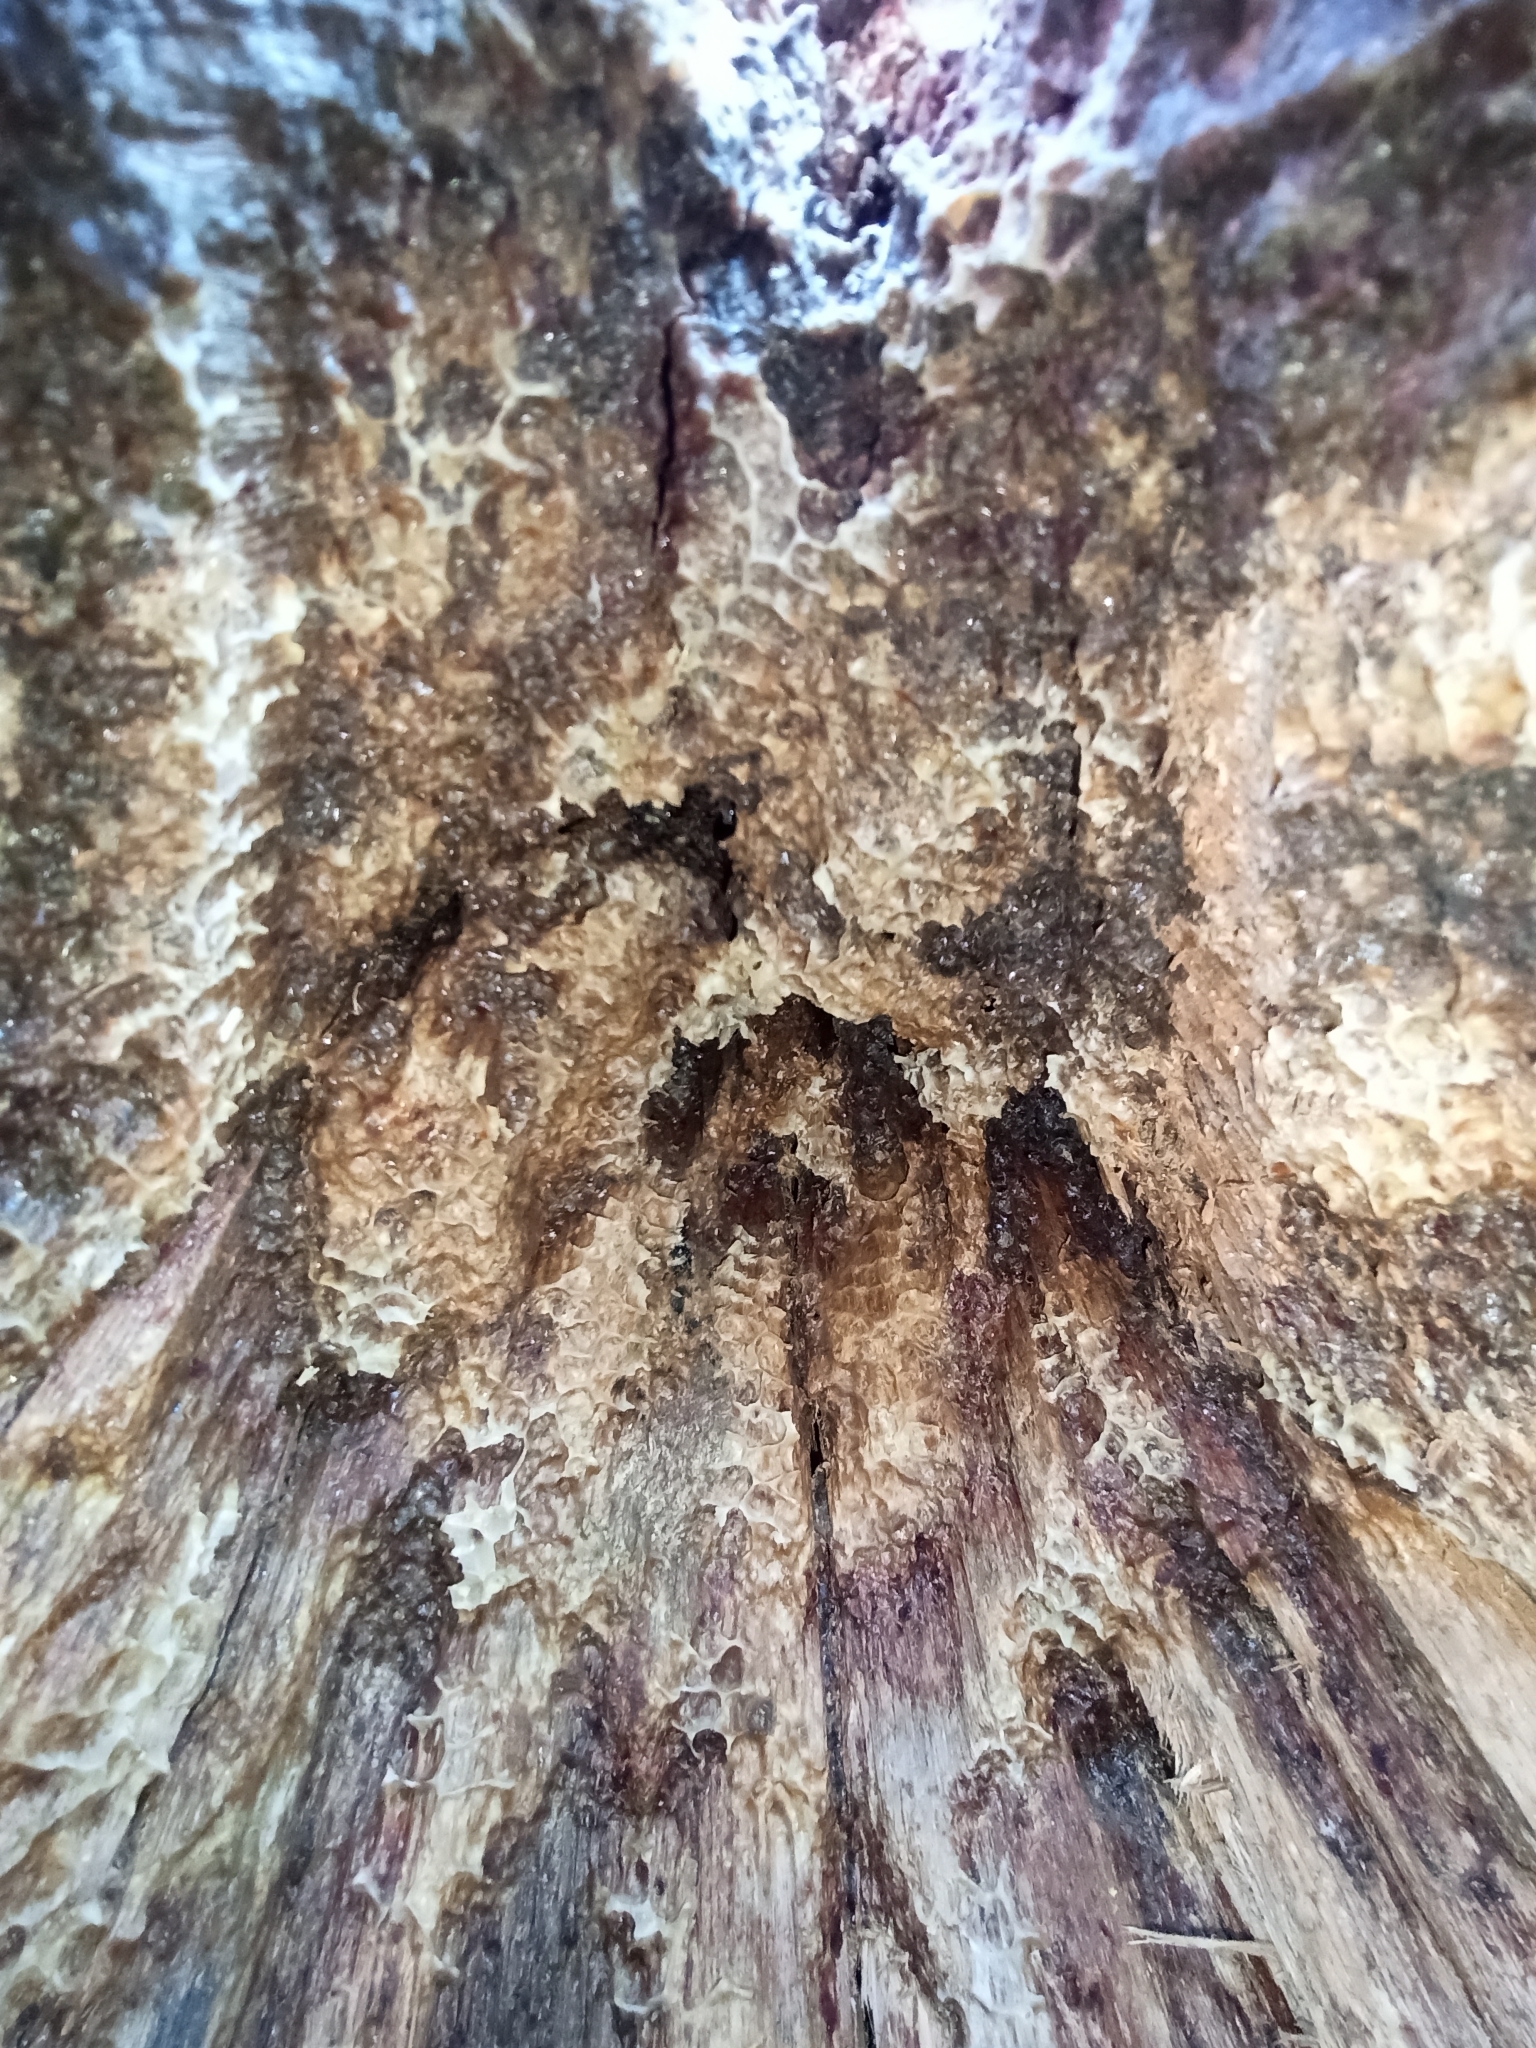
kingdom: Animalia
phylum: Arthropoda
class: Insecta
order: Hymenoptera
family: Apidae
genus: Apis
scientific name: Apis mellifera
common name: Honey bee
